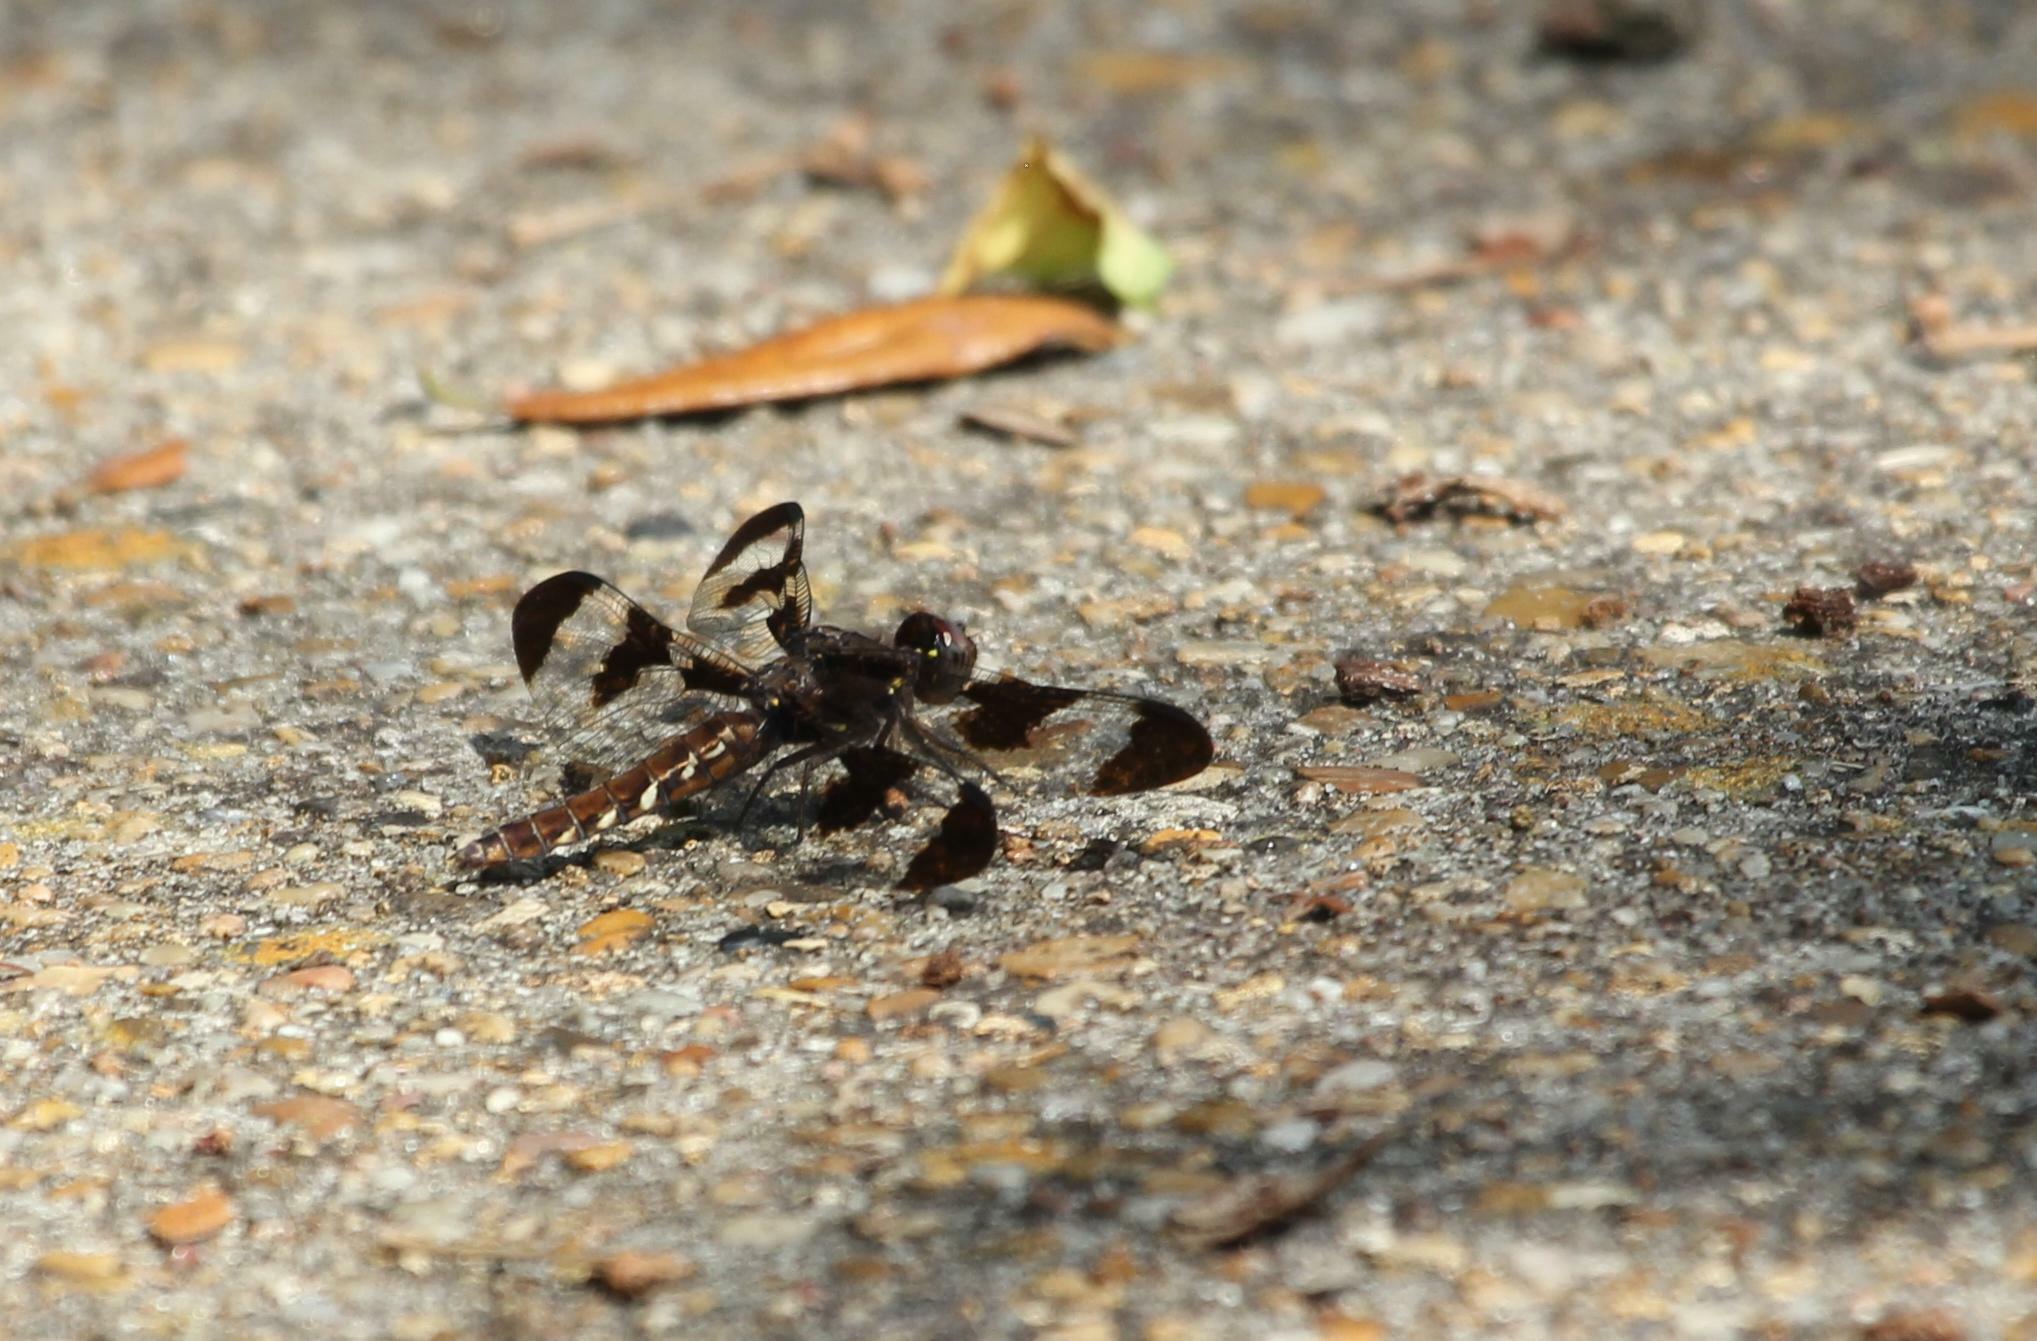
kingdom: Animalia
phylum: Arthropoda
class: Insecta
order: Odonata
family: Libellulidae
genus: Plathemis
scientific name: Plathemis lydia
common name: Common whitetail
